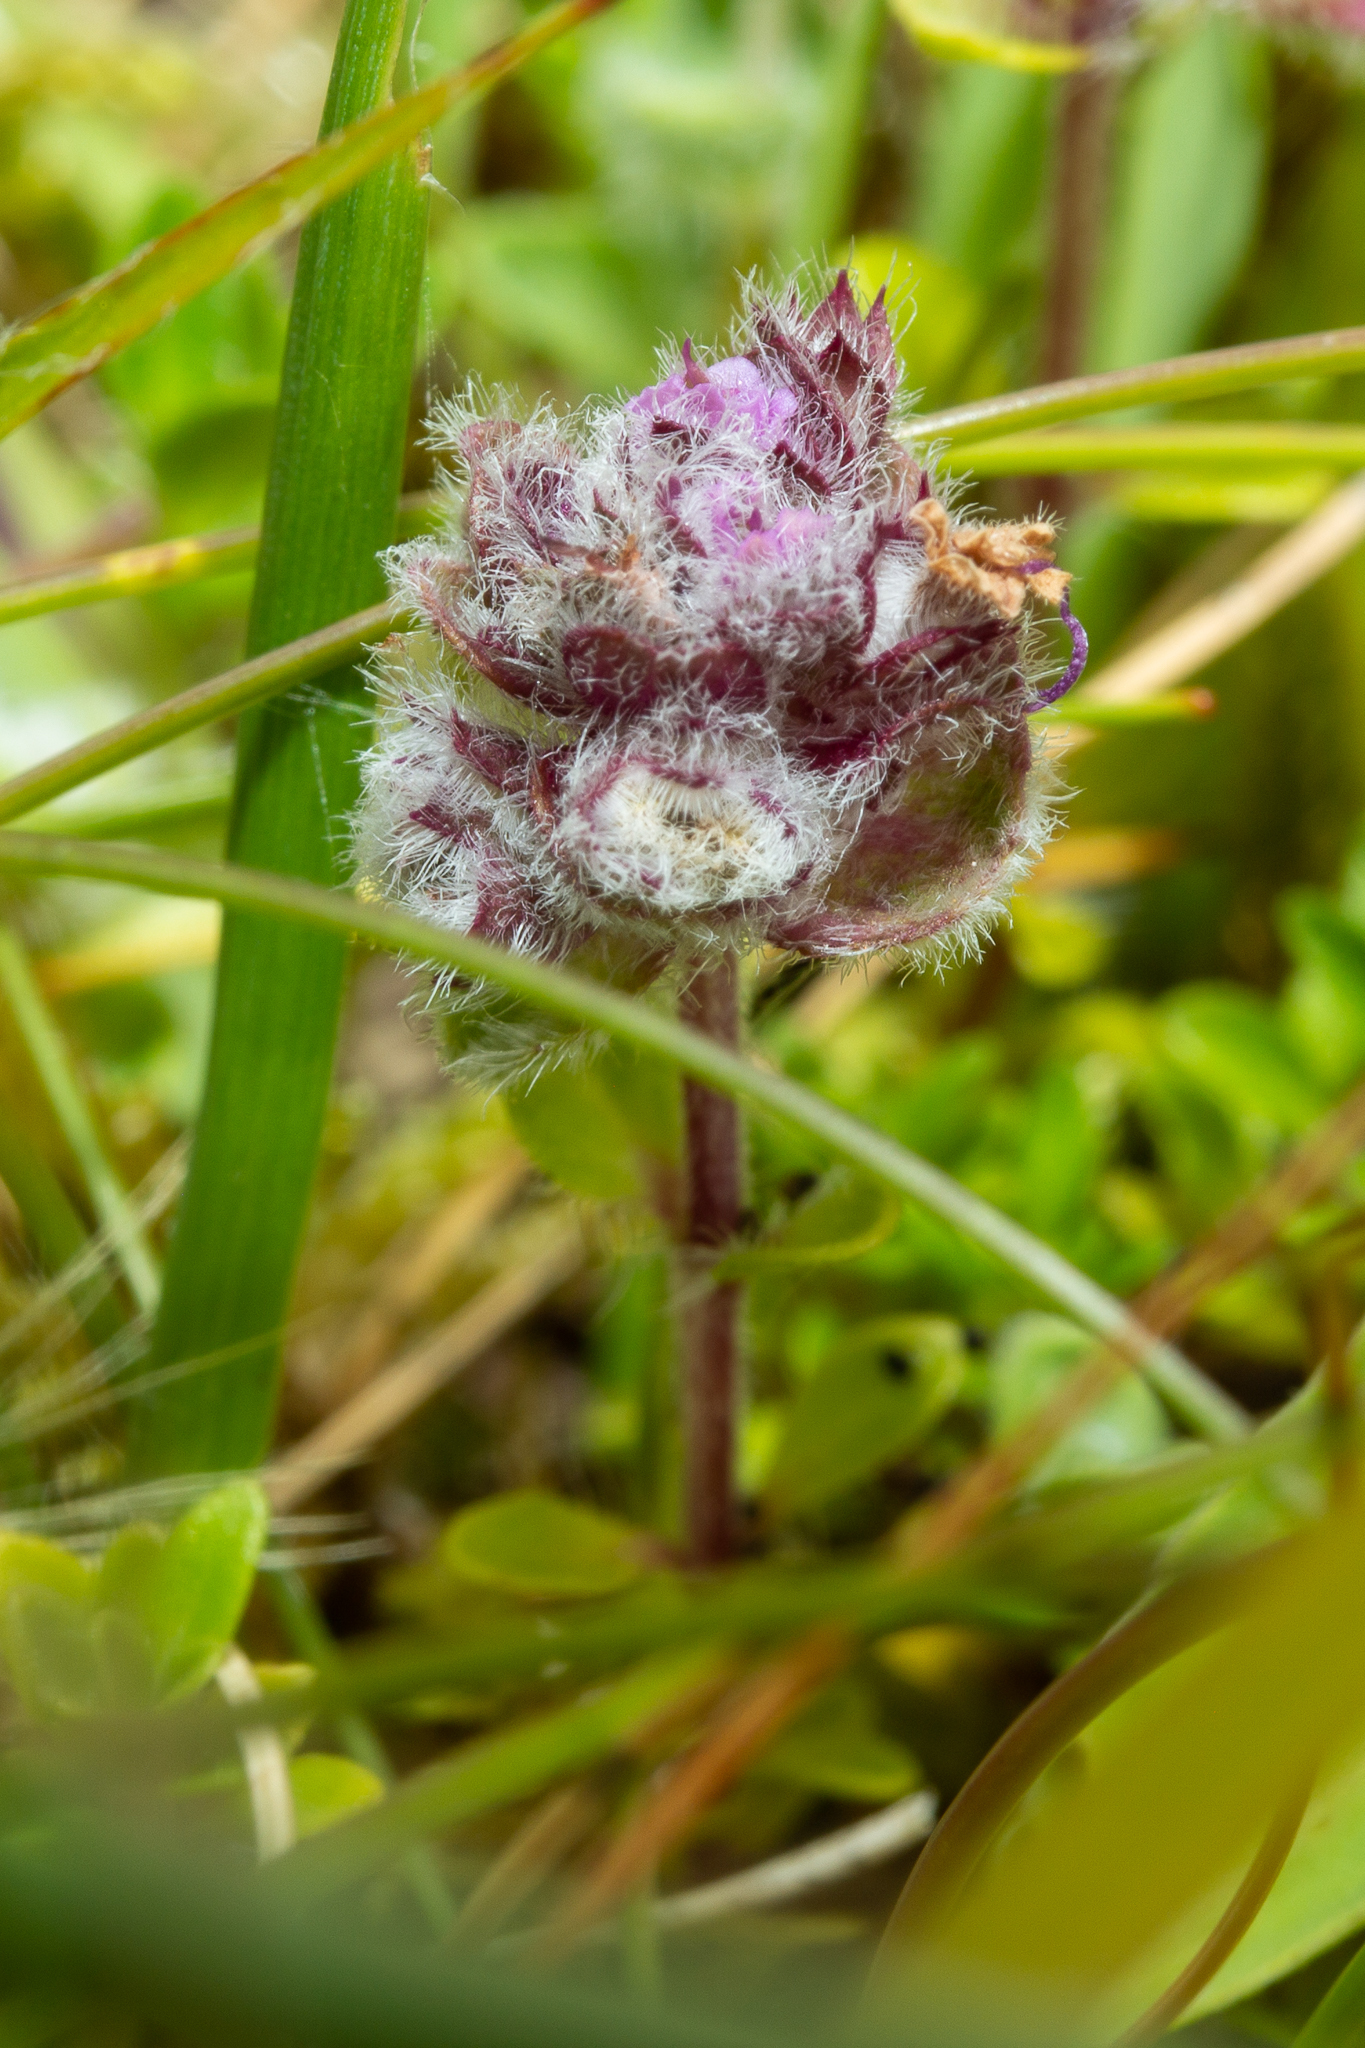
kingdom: Animalia
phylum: Arthropoda
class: Arachnida
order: Trombidiformes
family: Eriophyidae
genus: Aceria
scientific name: Aceria thomasi
